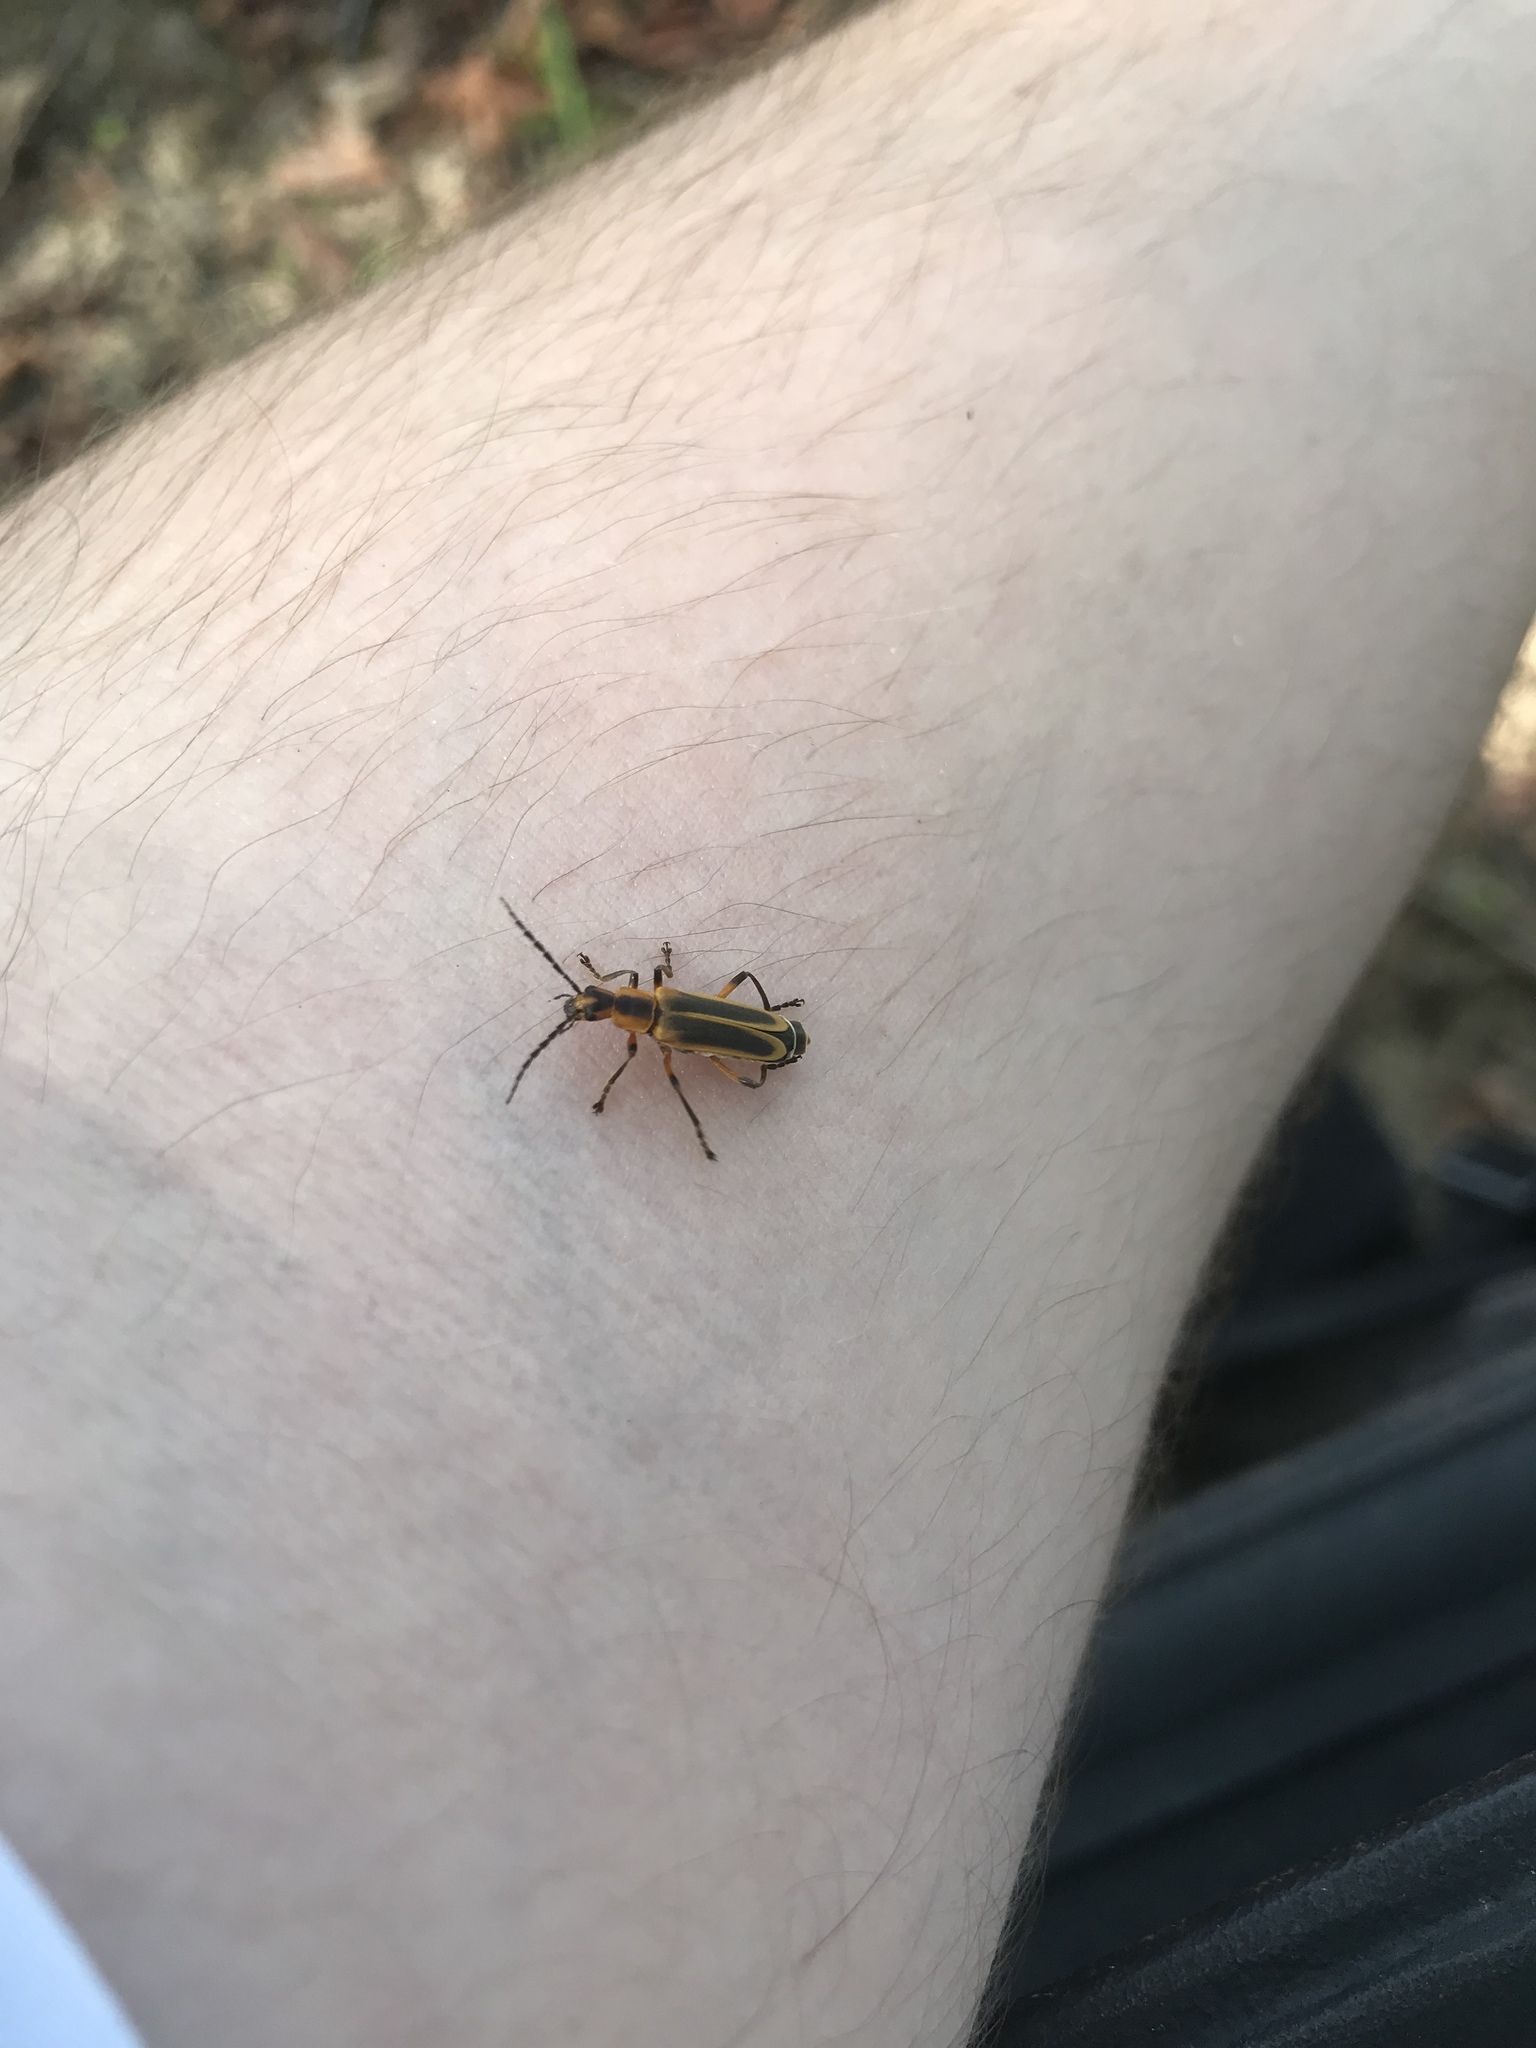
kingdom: Animalia
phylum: Arthropoda
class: Insecta
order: Coleoptera
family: Cantharidae
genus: Chauliognathus
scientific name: Chauliognathus marginatus
